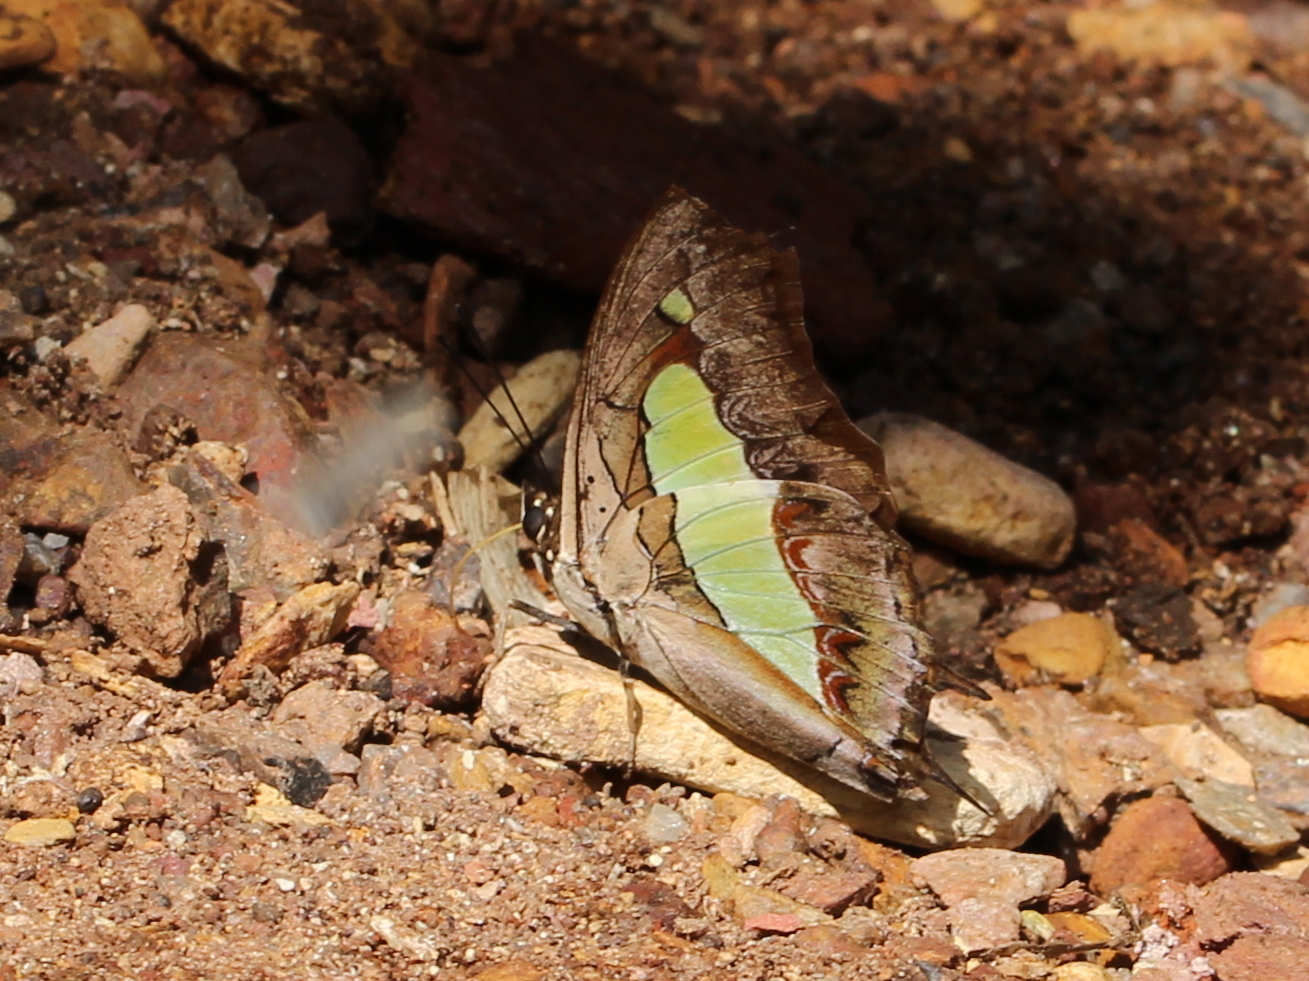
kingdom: Animalia
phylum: Arthropoda
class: Insecta
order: Lepidoptera
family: Nymphalidae
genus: Polyura
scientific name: Polyura
